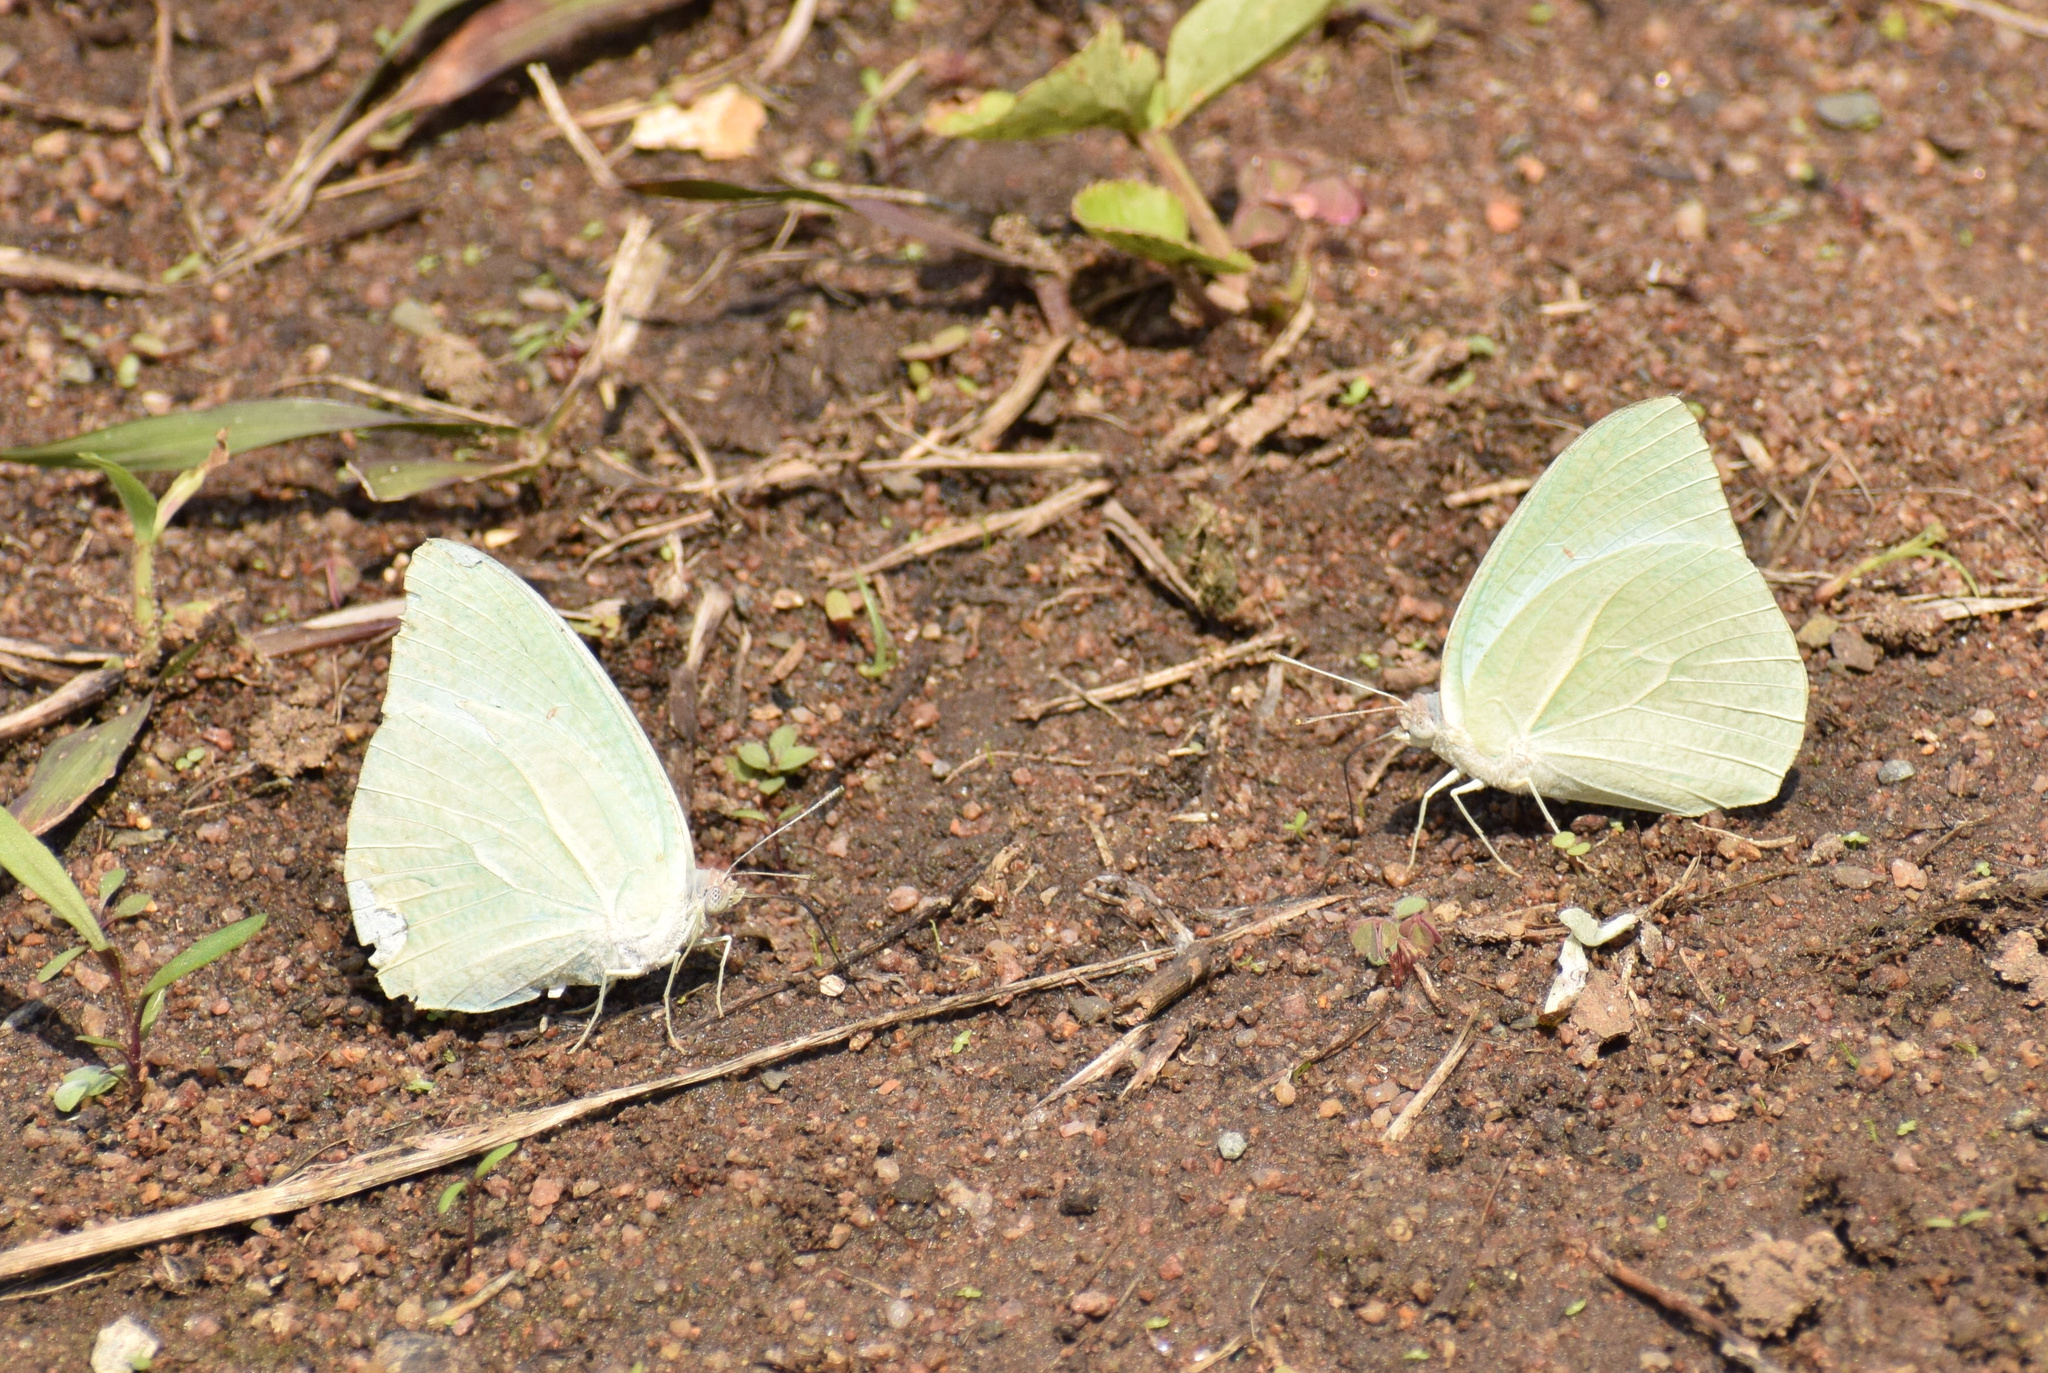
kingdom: Animalia
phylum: Arthropoda
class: Insecta
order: Lepidoptera
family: Pieridae
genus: Catopsilia
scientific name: Catopsilia florella
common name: African migrant
